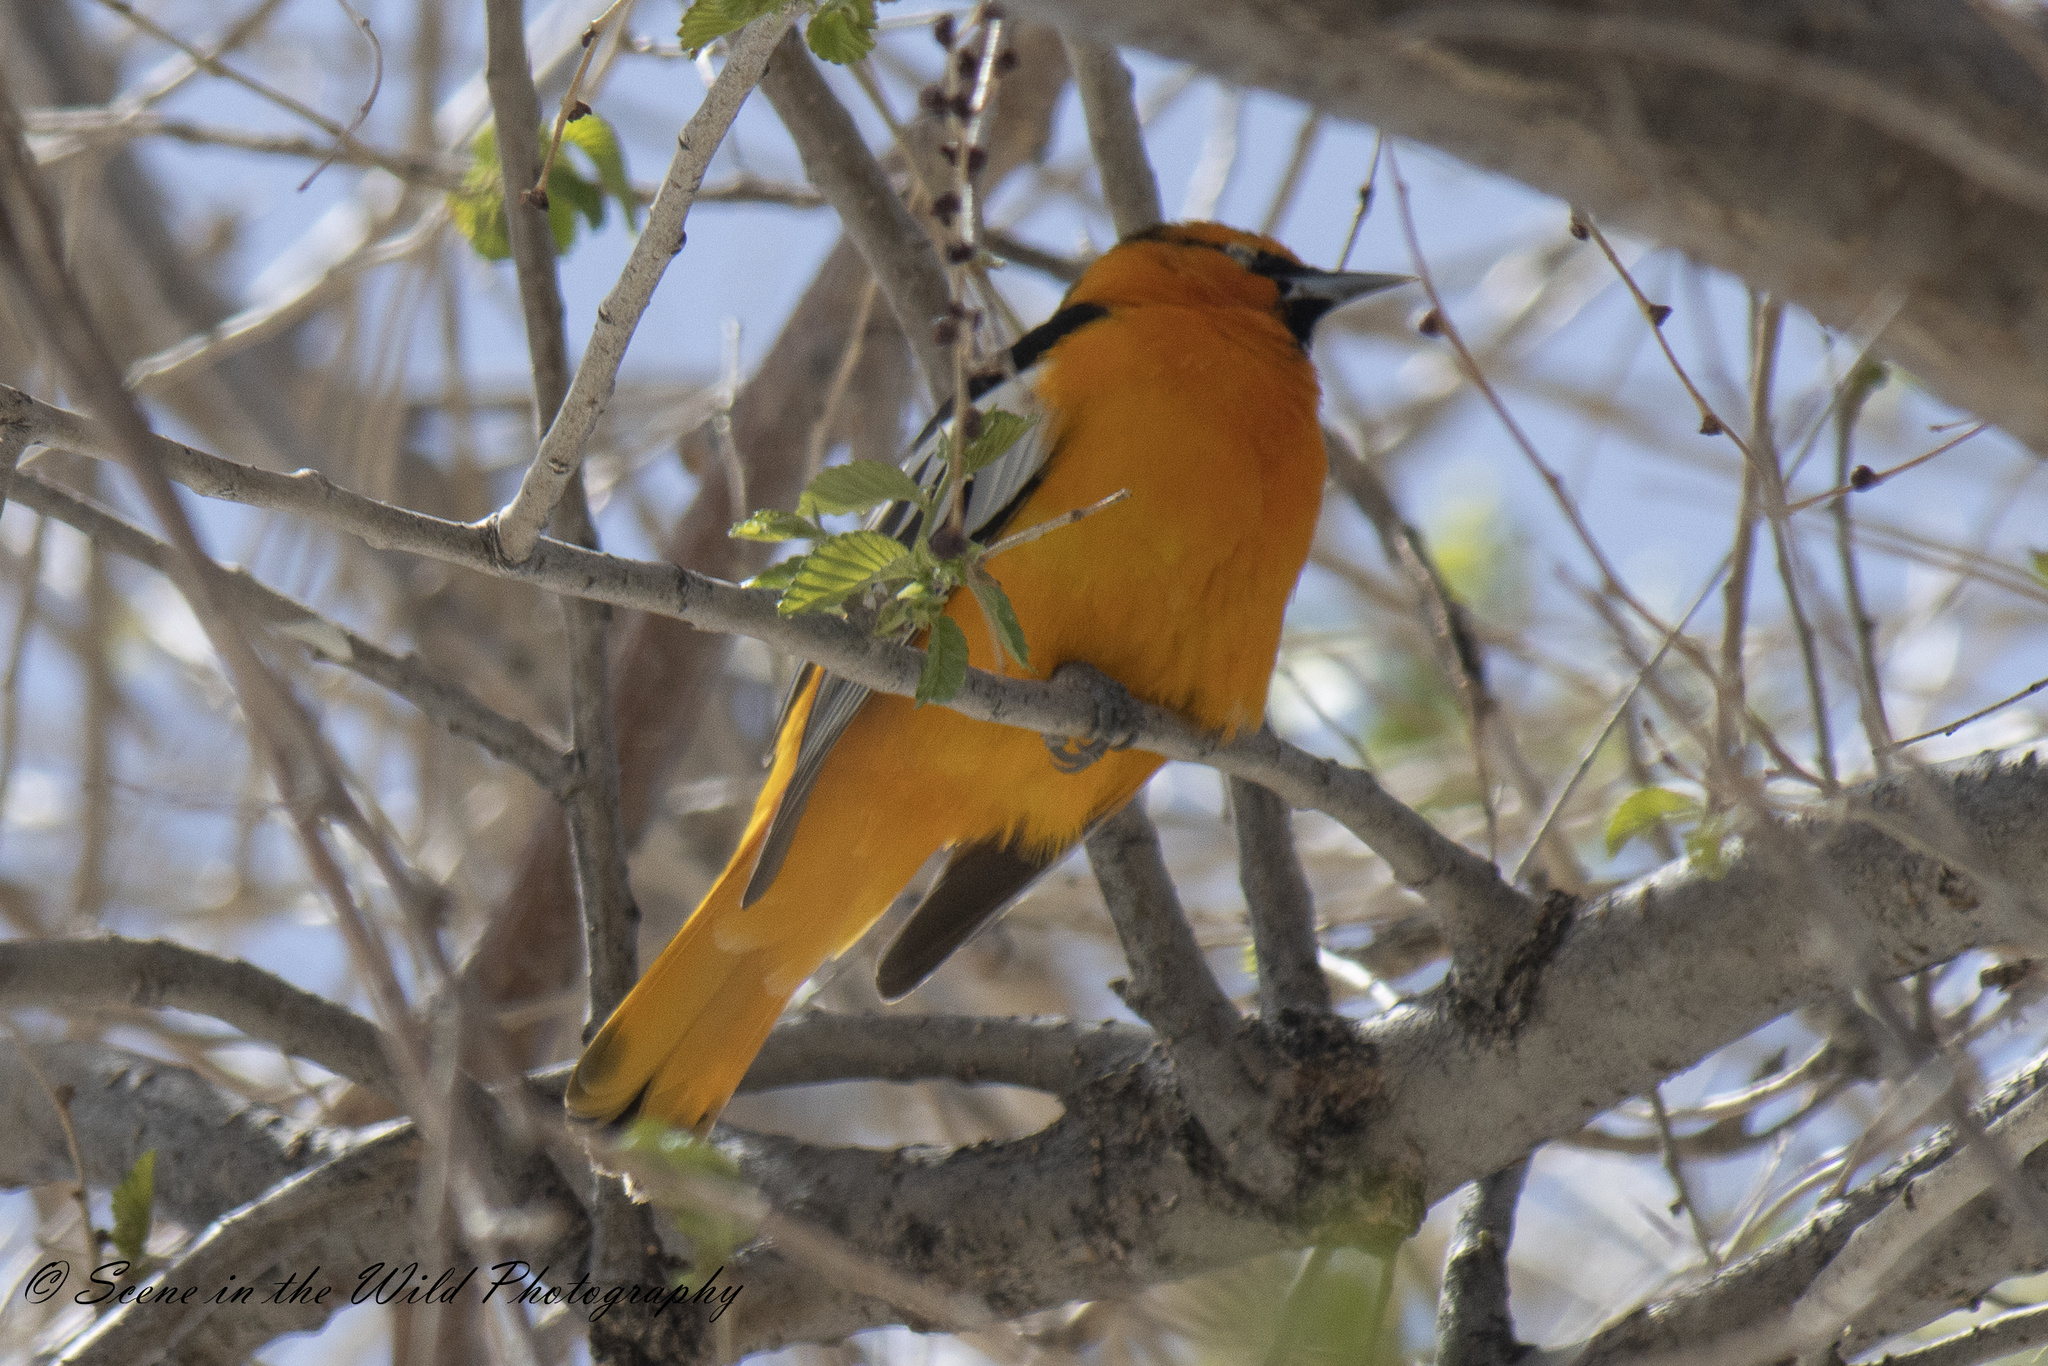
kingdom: Animalia
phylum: Chordata
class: Aves
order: Passeriformes
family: Icteridae
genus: Icterus
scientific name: Icterus bullockii
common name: Bullock's oriole
